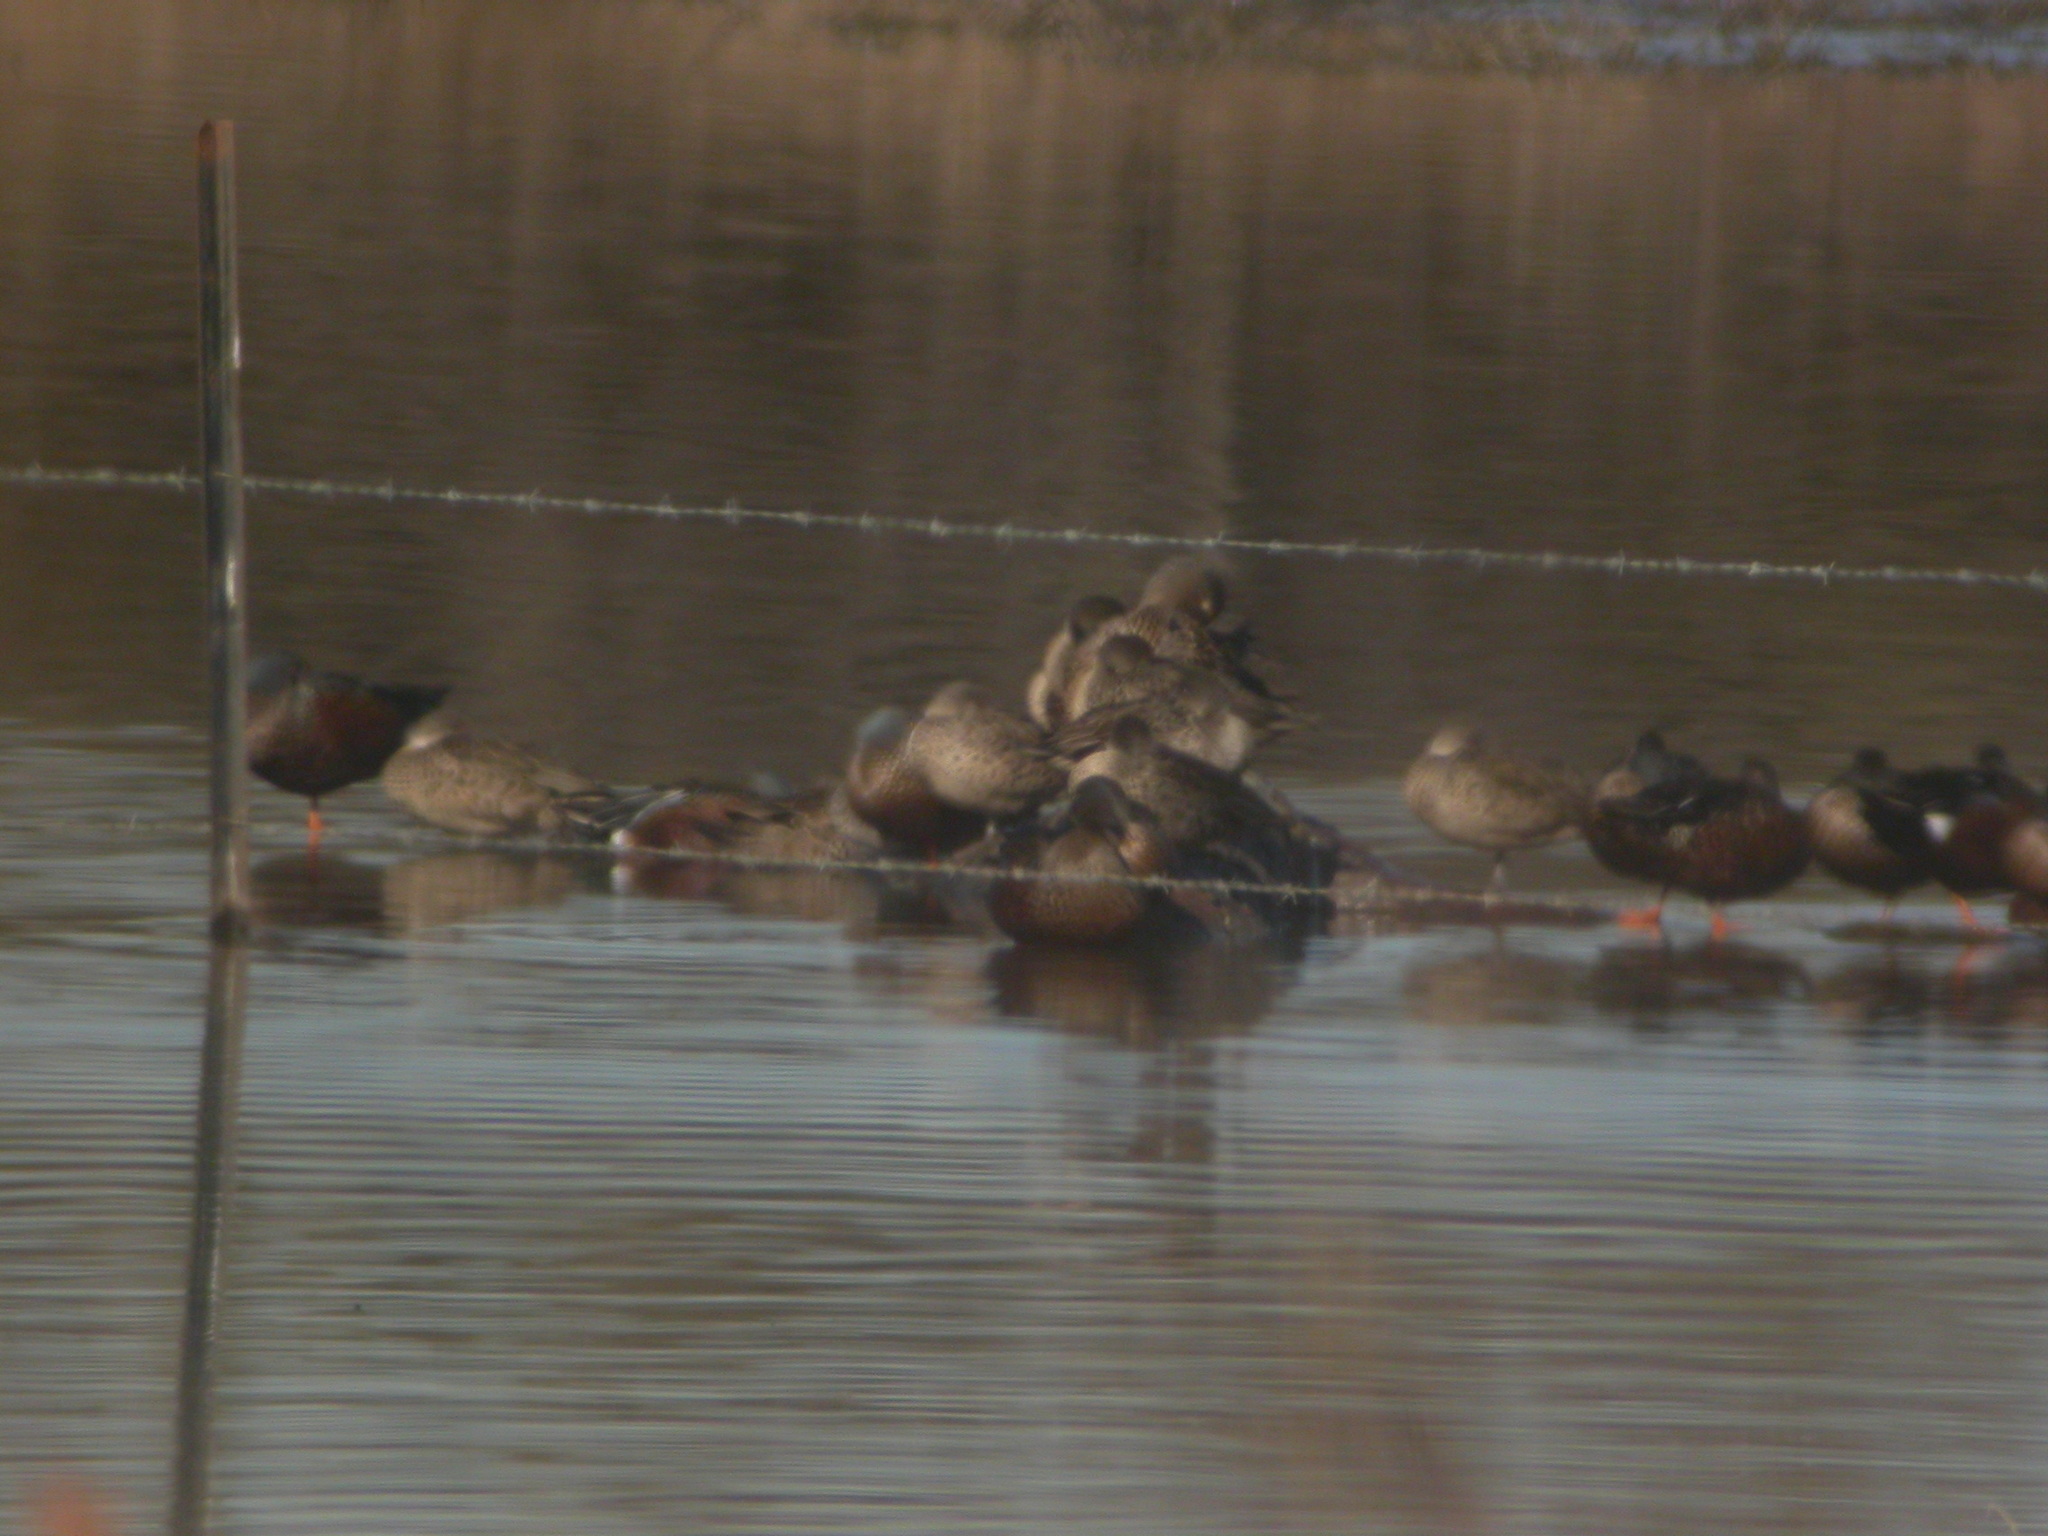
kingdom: Animalia
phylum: Chordata
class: Aves
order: Anseriformes
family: Anatidae
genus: Spatula
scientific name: Spatula rhynchotis
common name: Australian shoveler
